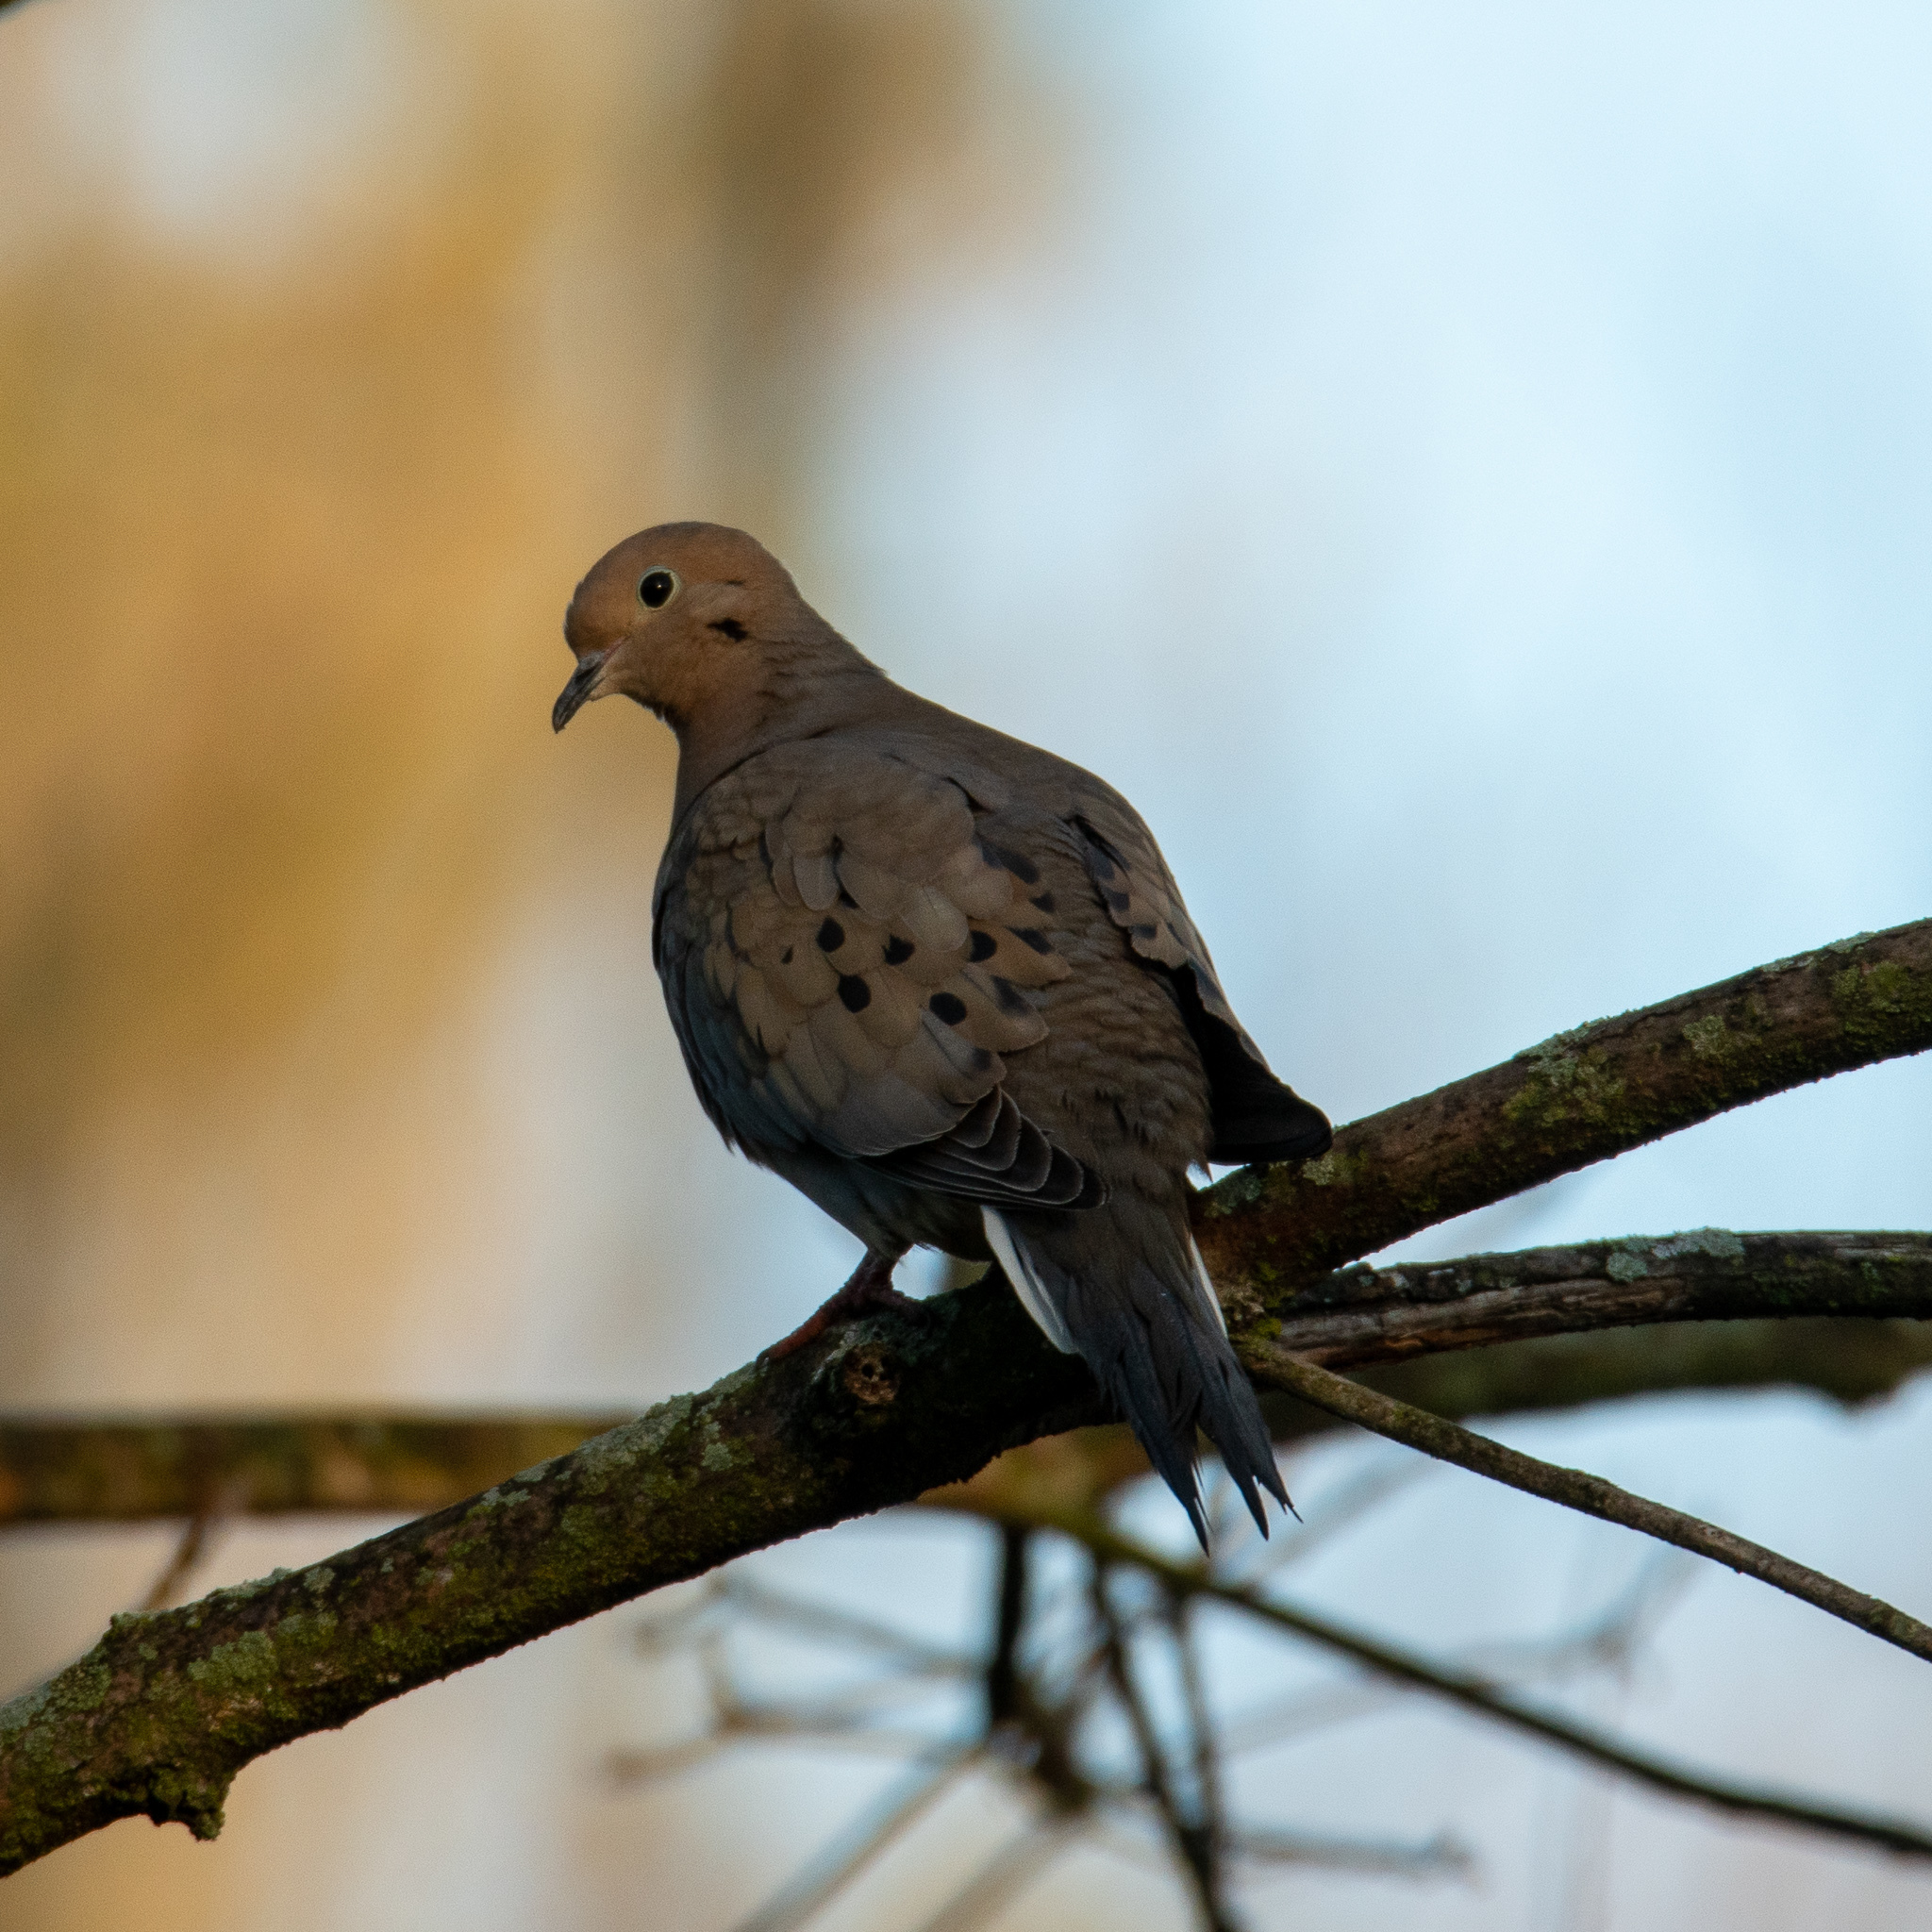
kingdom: Animalia
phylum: Chordata
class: Aves
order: Columbiformes
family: Columbidae
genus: Zenaida
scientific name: Zenaida macroura
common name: Mourning dove
